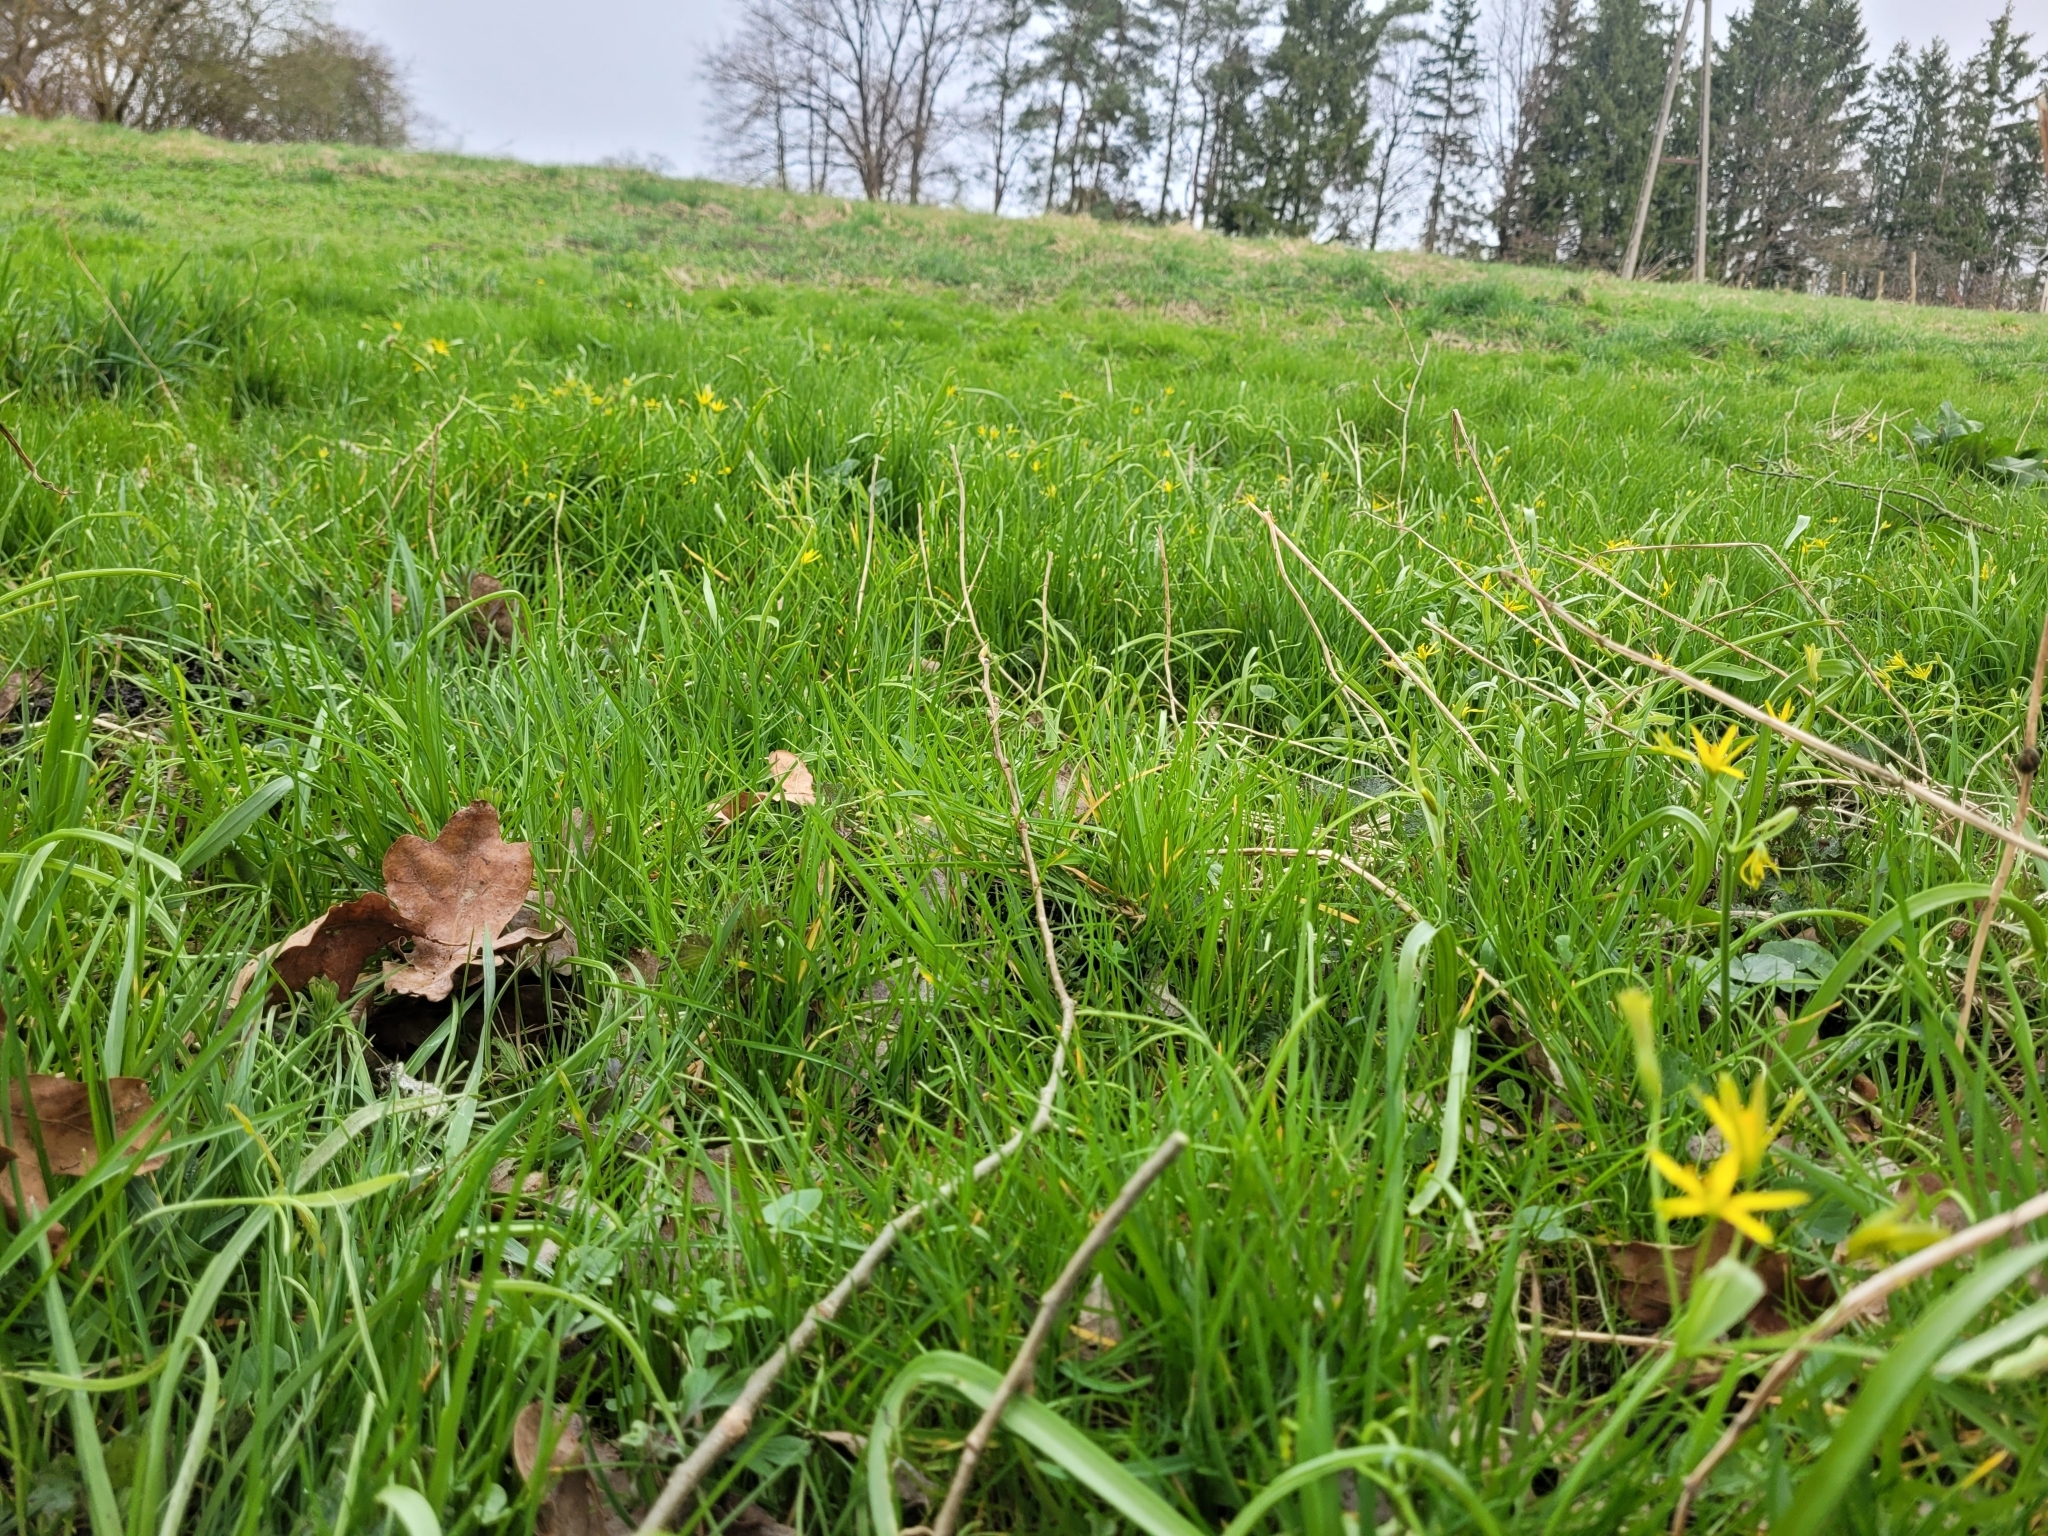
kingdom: Plantae
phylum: Tracheophyta
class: Liliopsida
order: Liliales
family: Liliaceae
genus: Gagea
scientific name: Gagea lutea
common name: Yellow star-of-bethlehem
